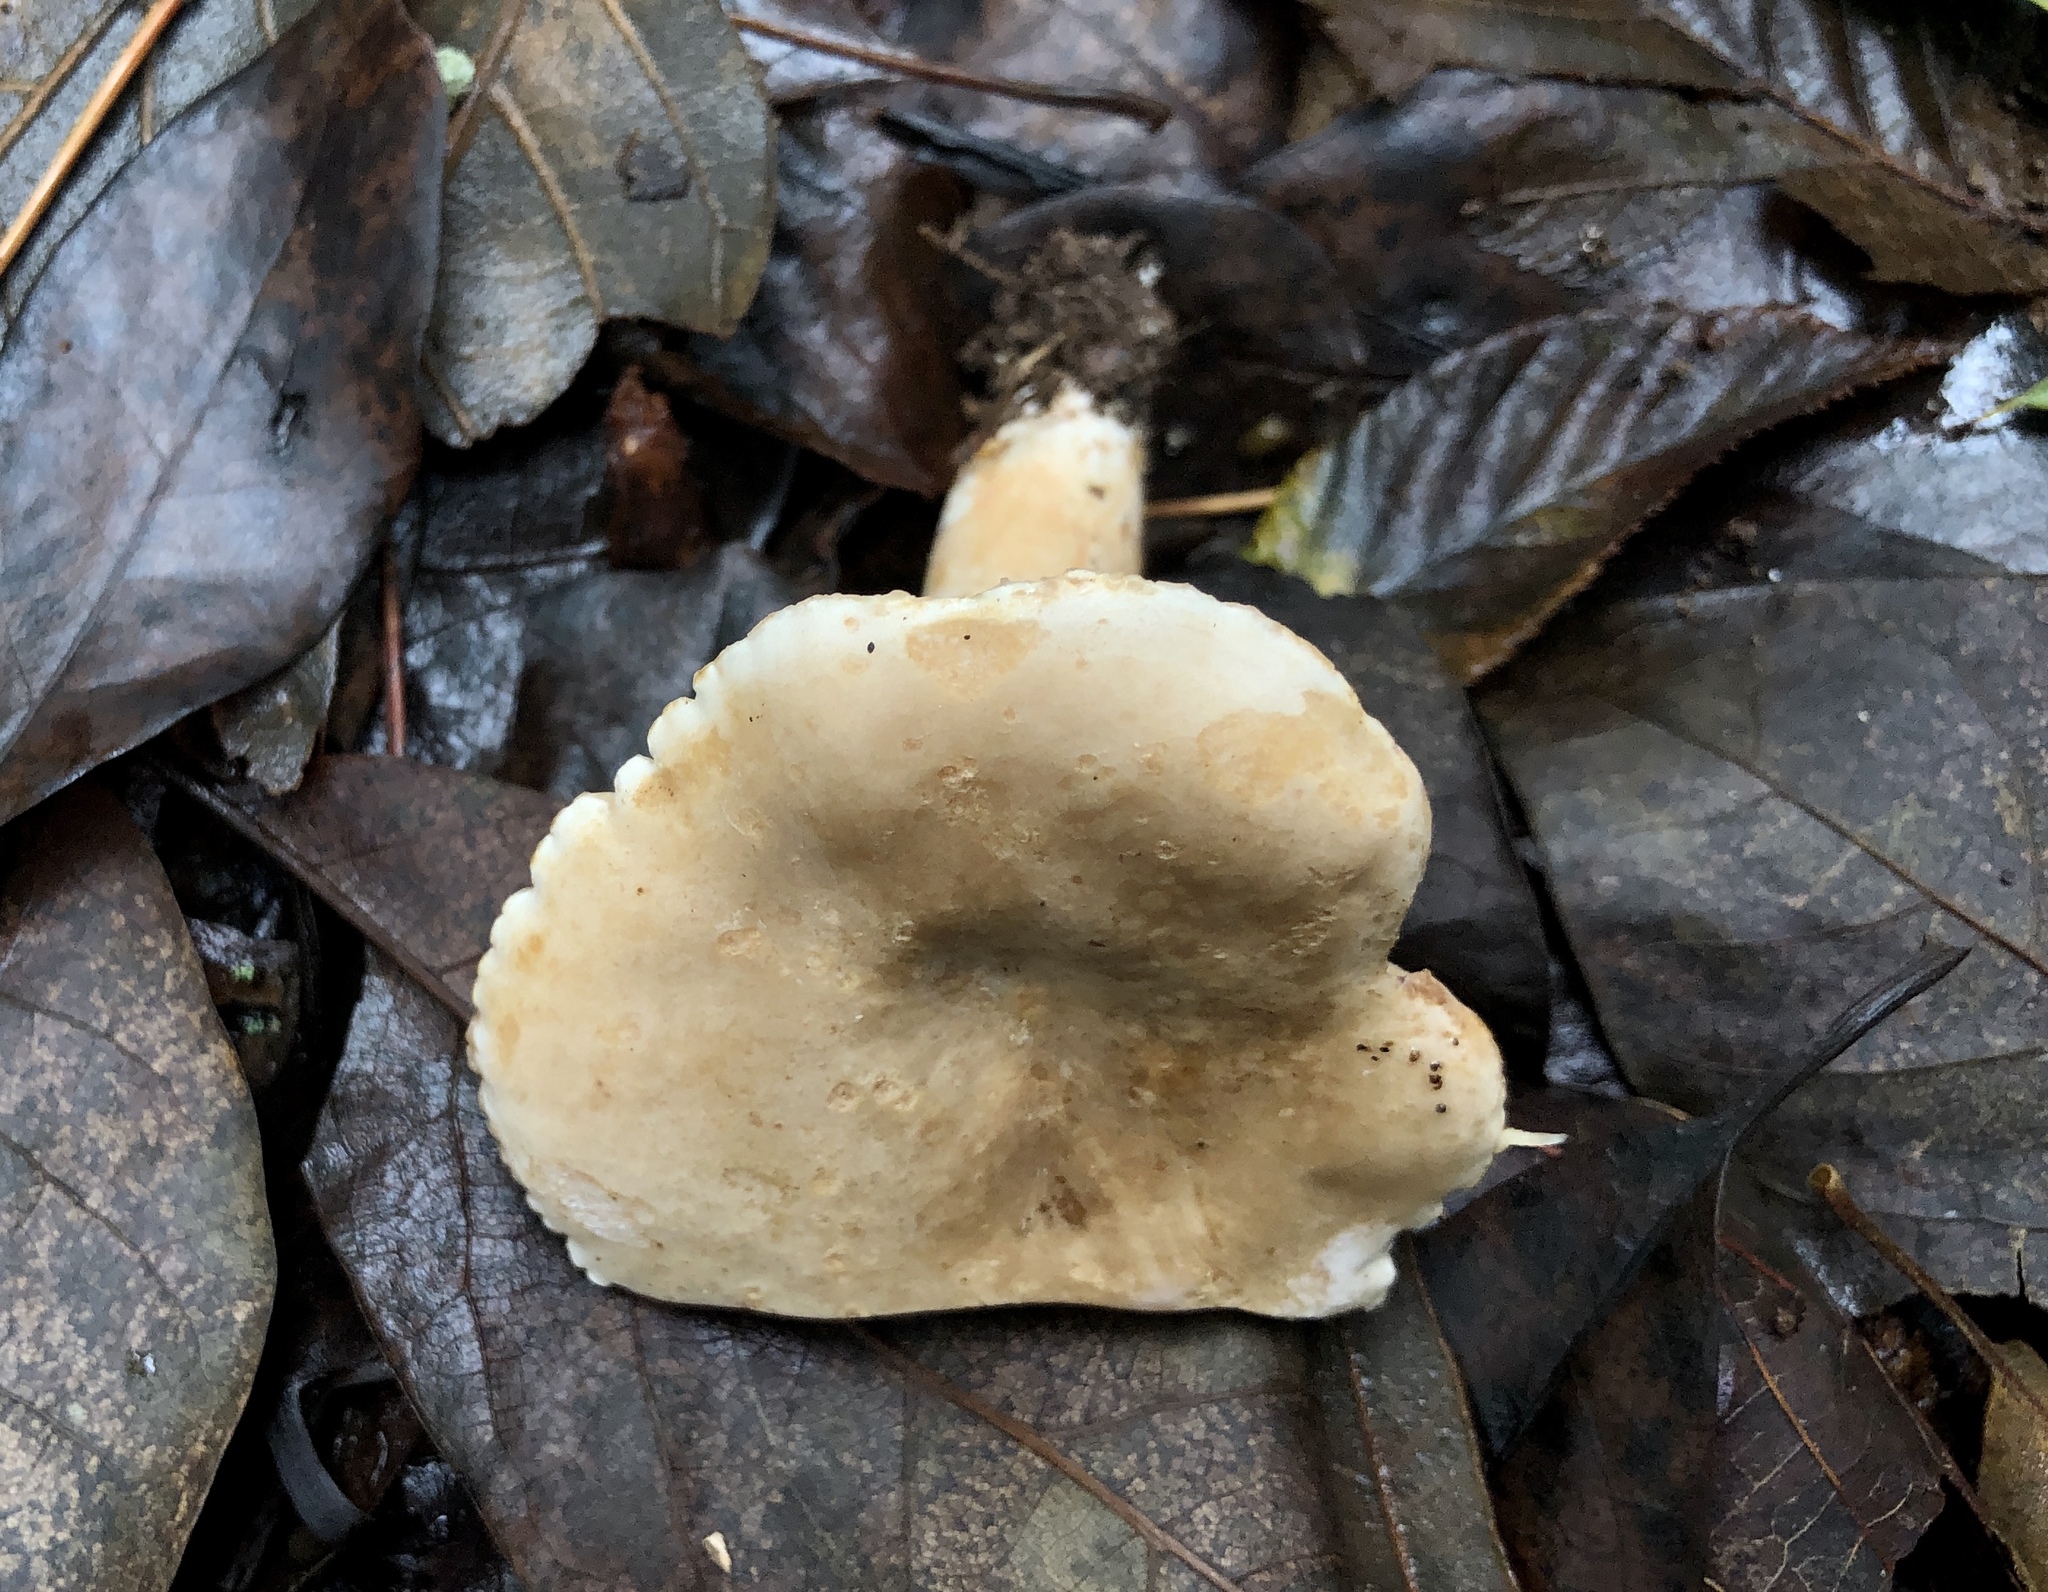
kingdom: Fungi
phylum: Basidiomycota
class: Agaricomycetes
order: Russulales
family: Russulaceae
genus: Lactarius
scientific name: Lactarius subplinthogalus
